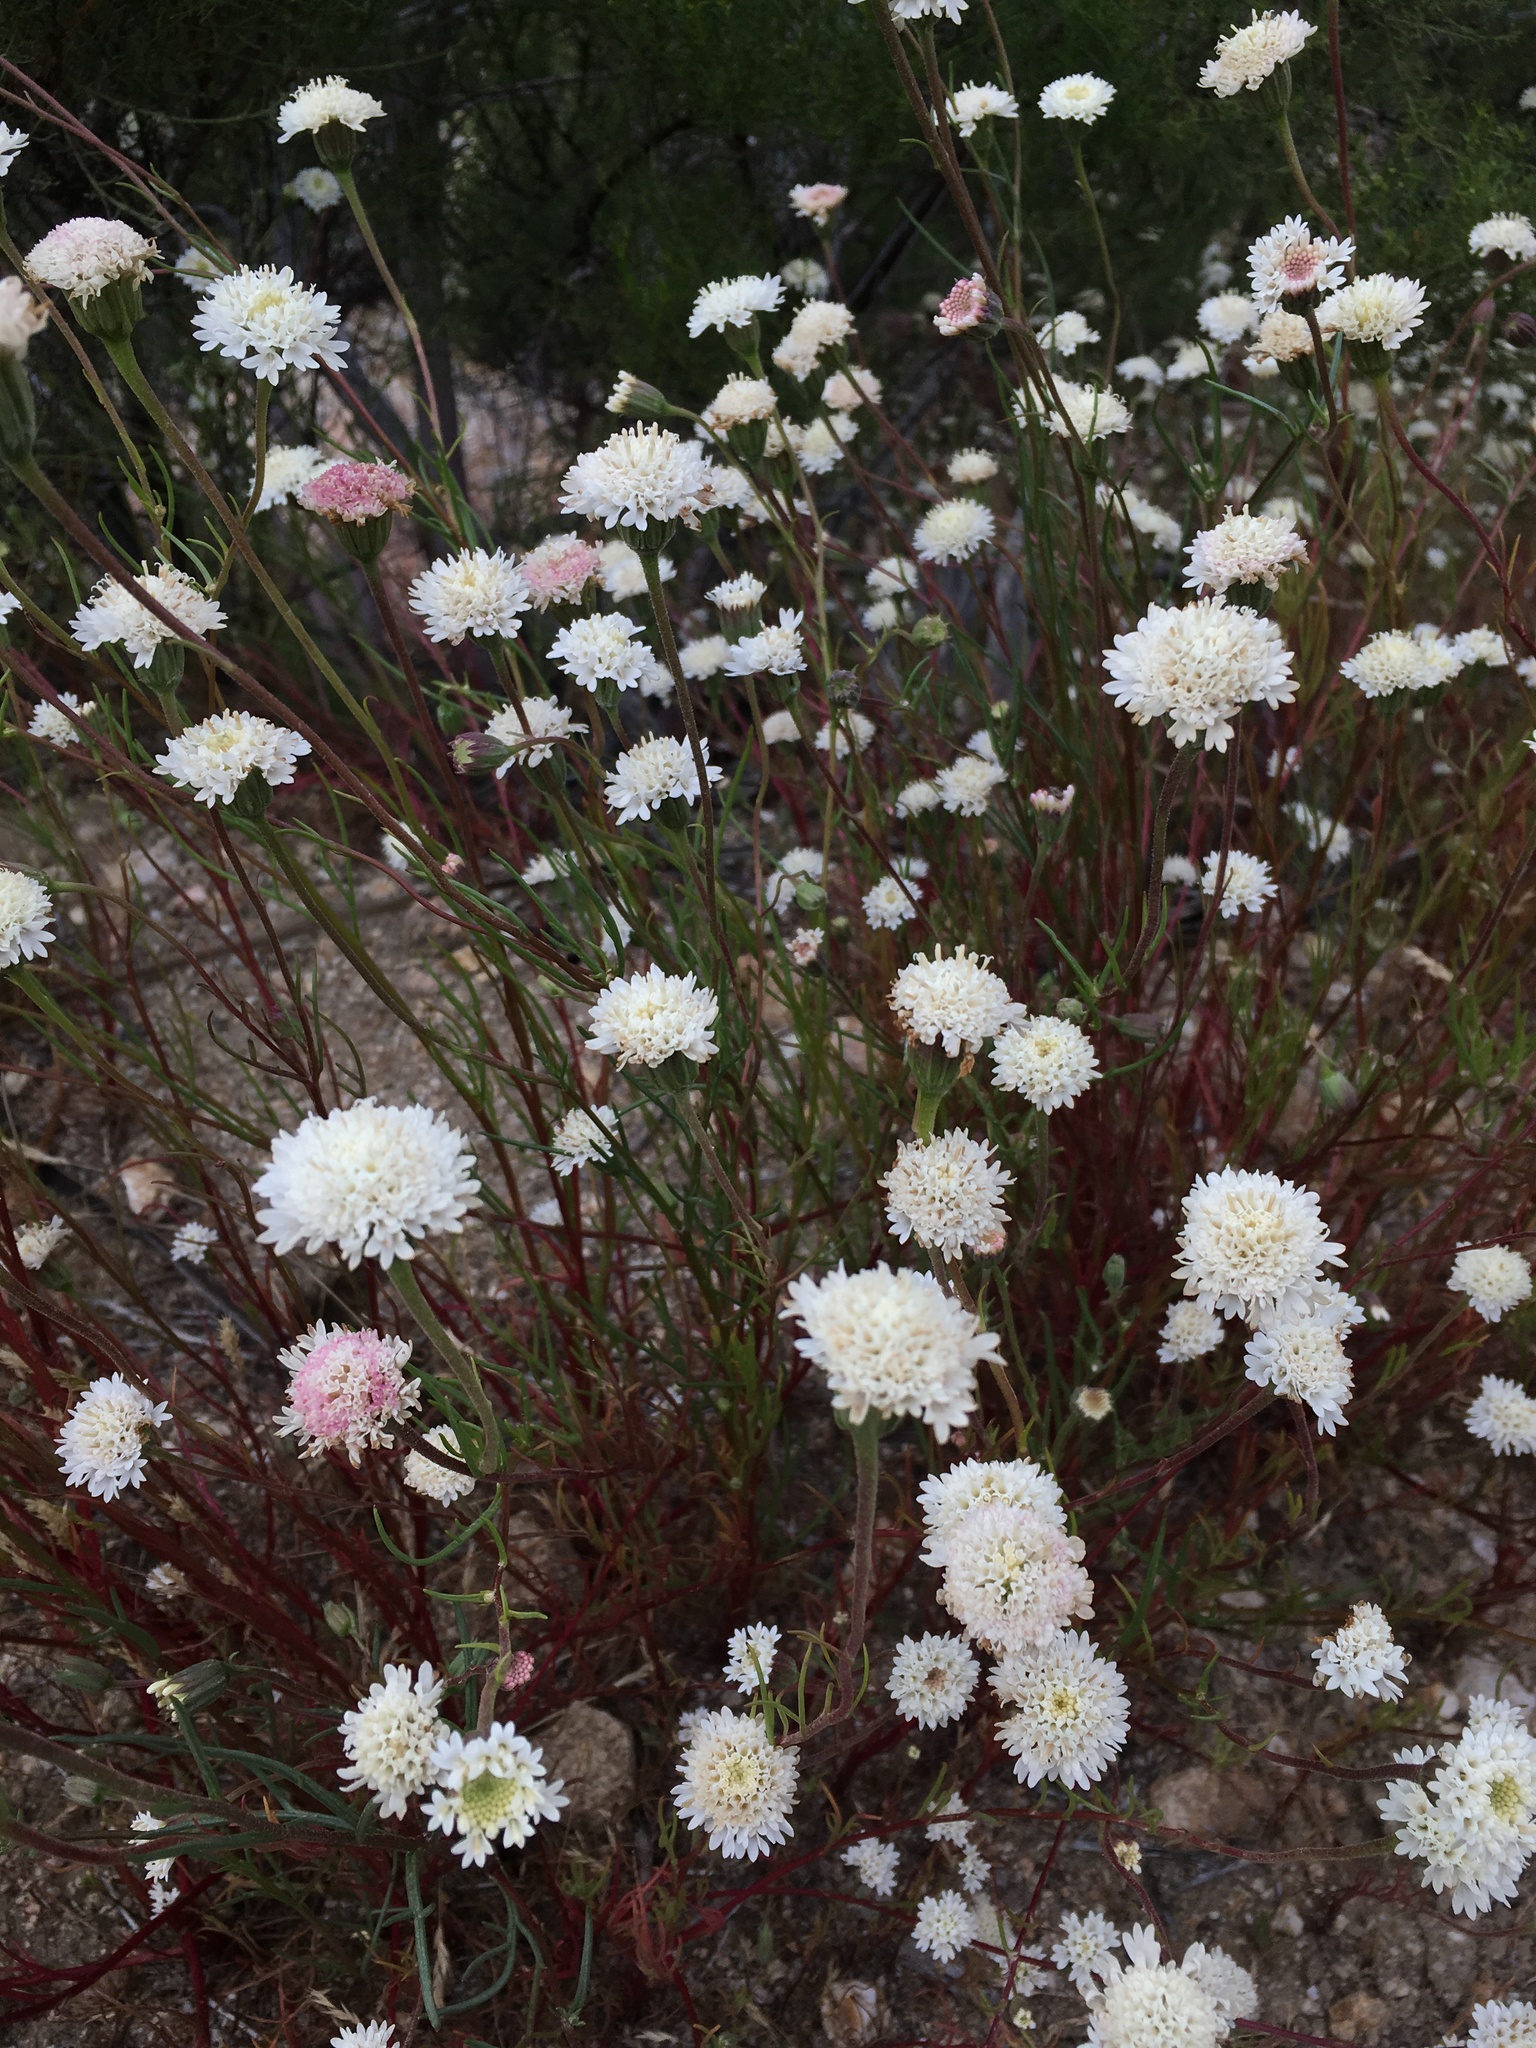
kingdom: Plantae
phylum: Tracheophyta
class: Magnoliopsida
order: Asterales
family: Asteraceae
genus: Chaenactis
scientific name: Chaenactis fremontii
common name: Fremont pincushion
